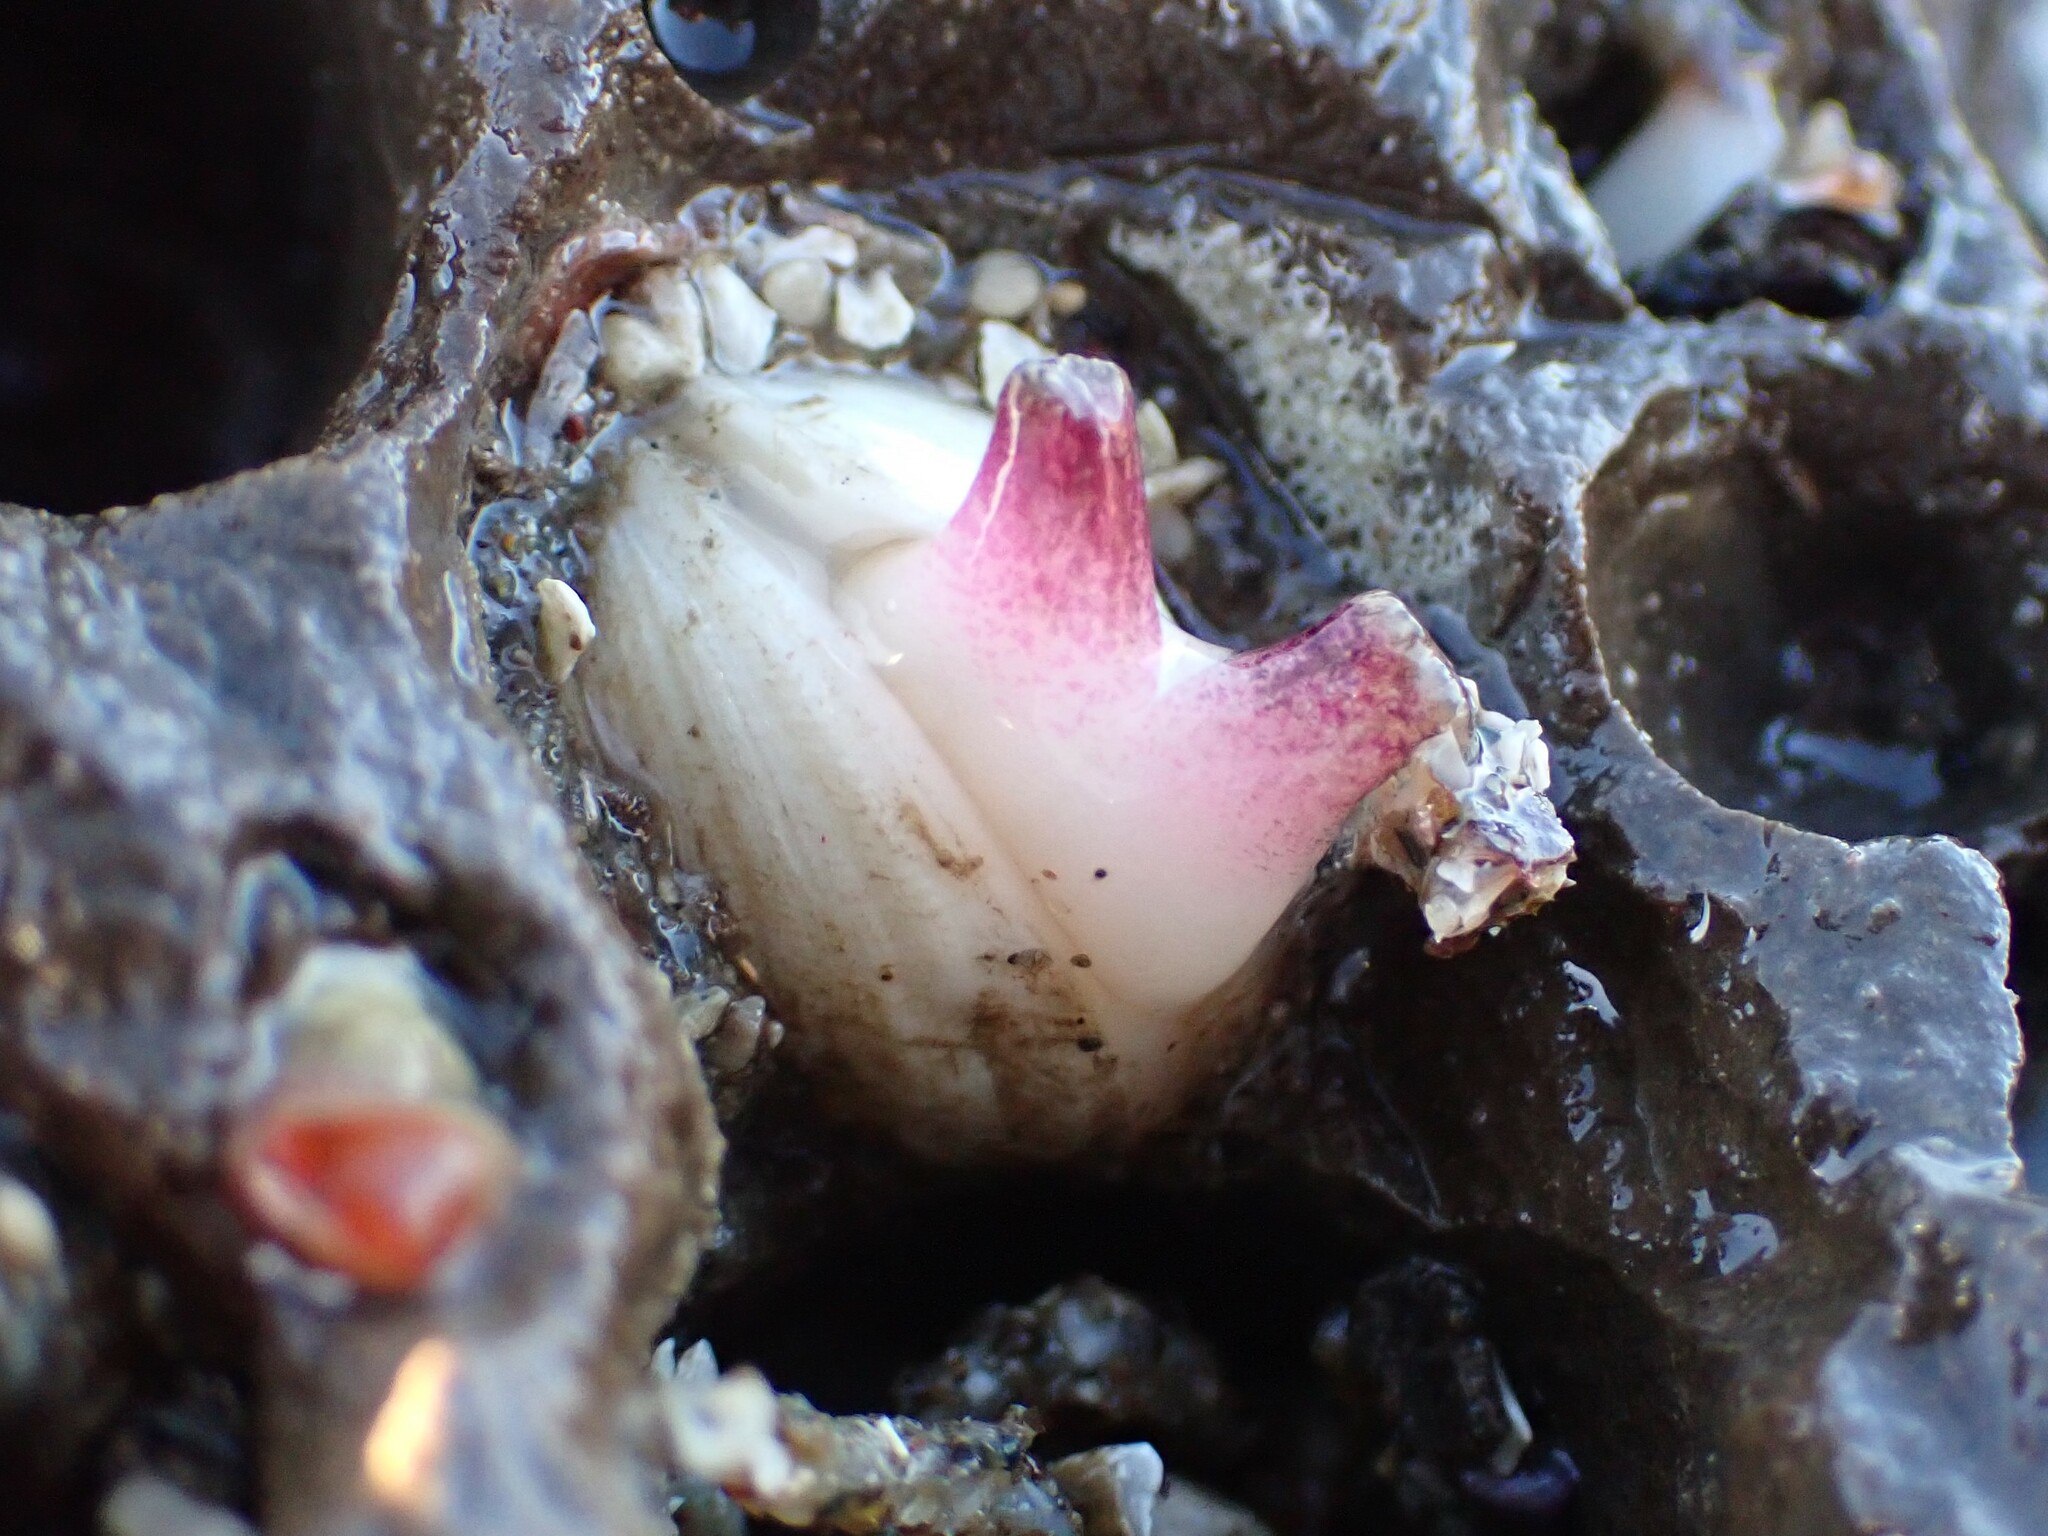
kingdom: Animalia
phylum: Mollusca
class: Bivalvia
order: Venerida
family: Veneridae
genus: Petricola
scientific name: Petricola carditoides
